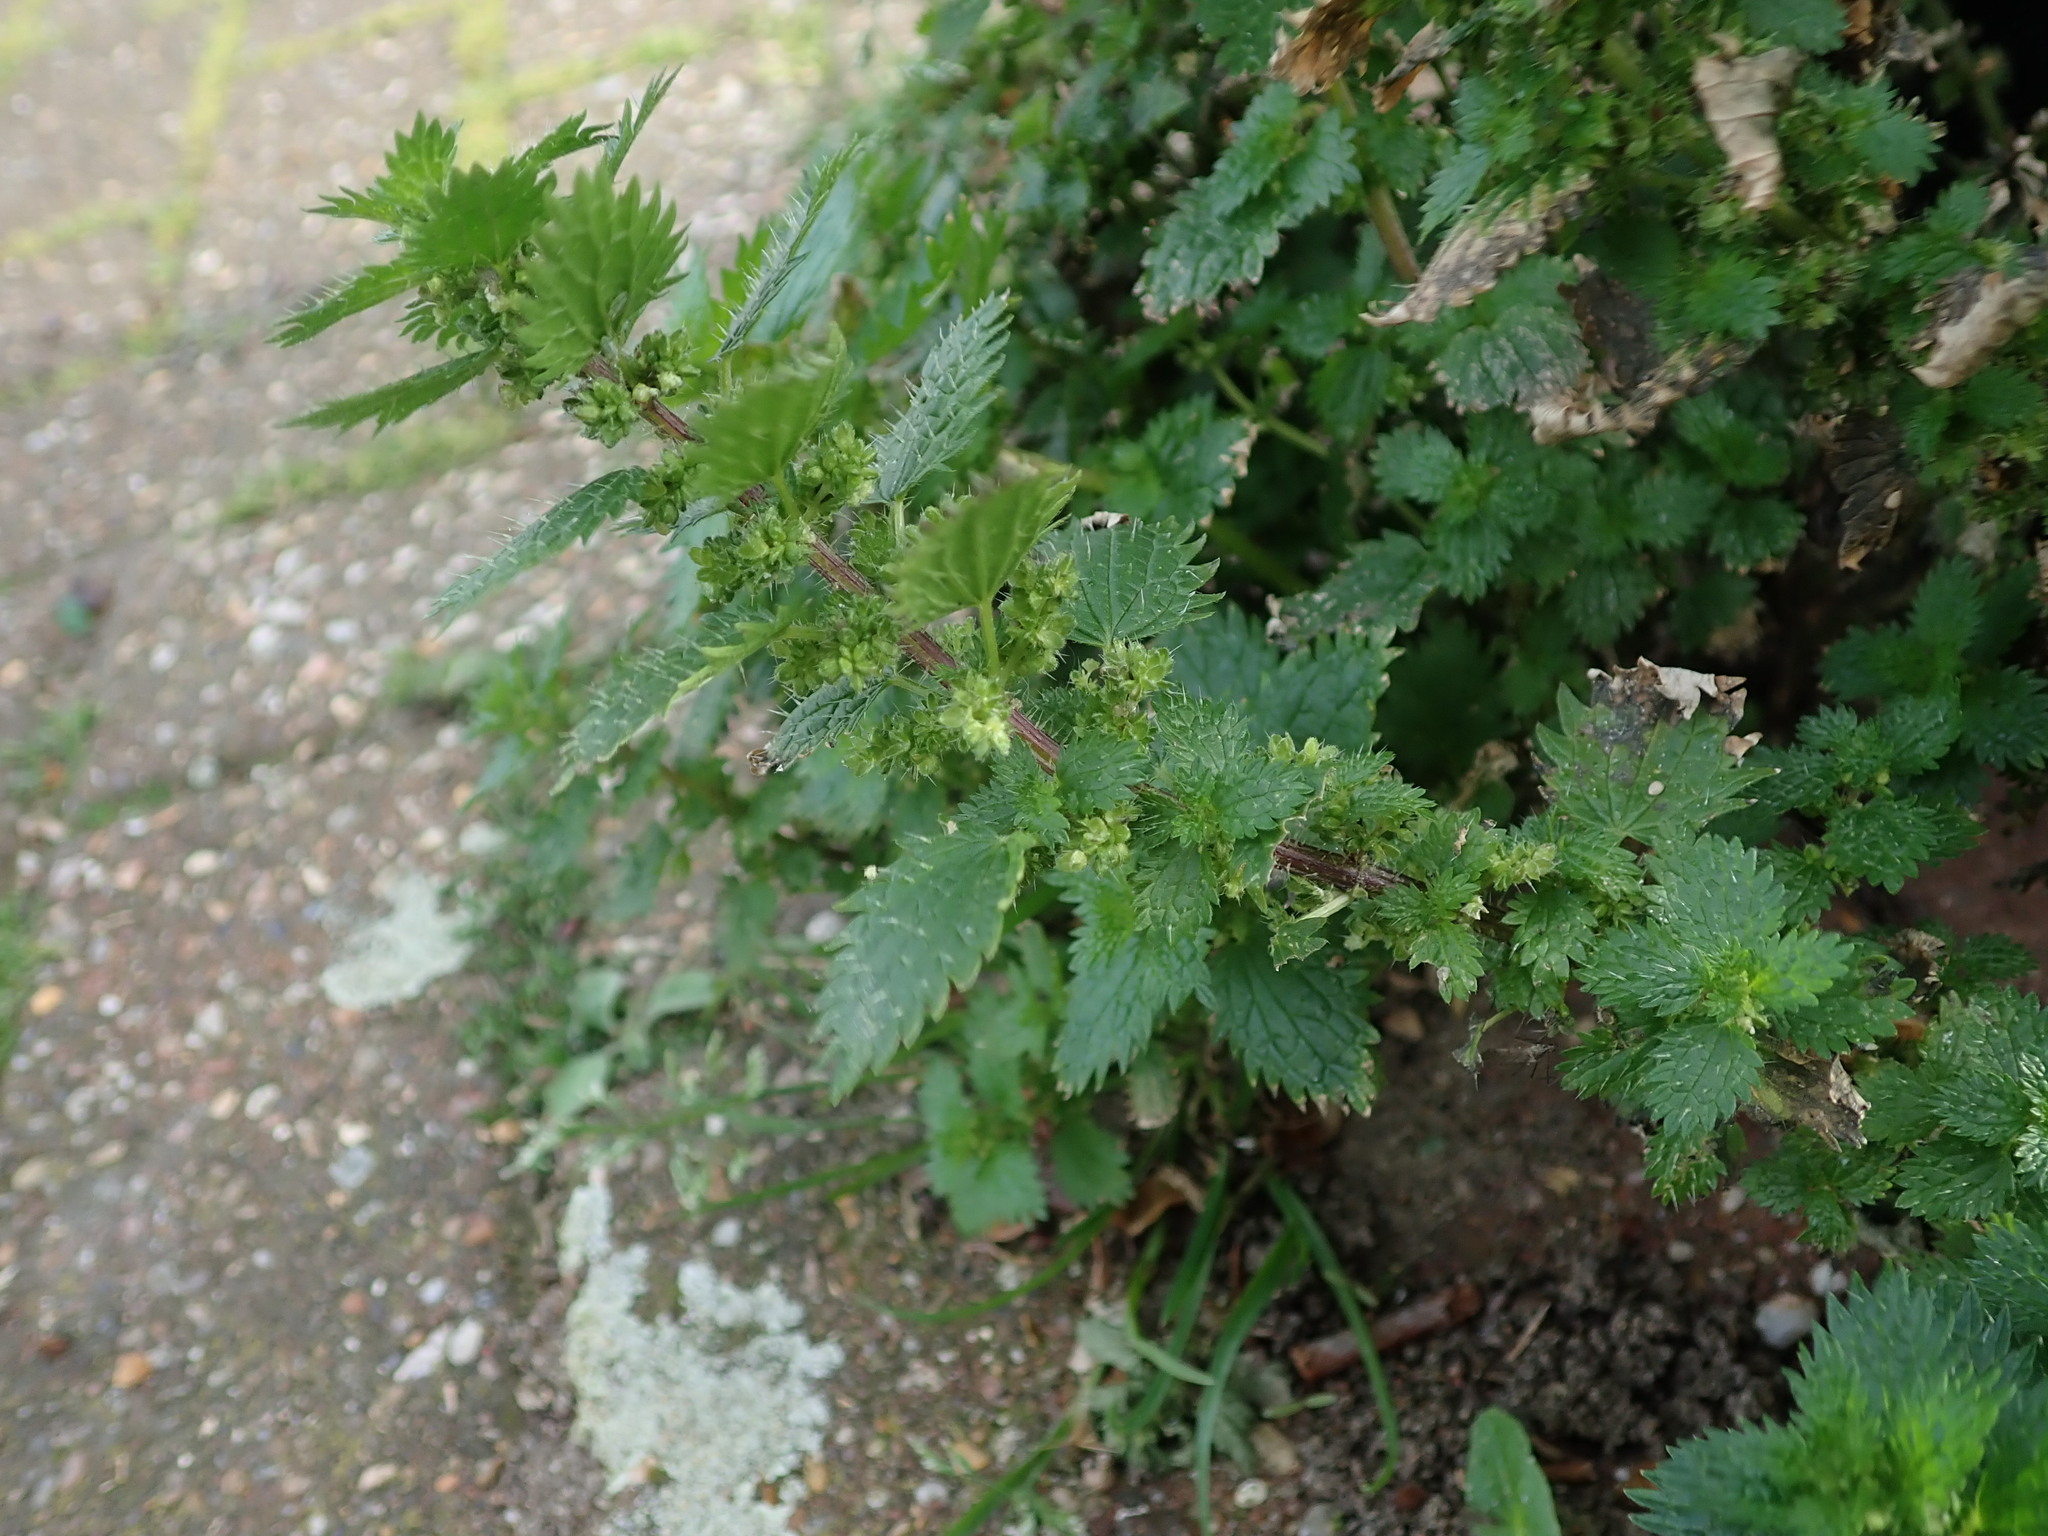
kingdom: Plantae
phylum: Tracheophyta
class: Magnoliopsida
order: Rosales
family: Urticaceae
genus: Urtica
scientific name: Urtica urens
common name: Dwarf nettle
